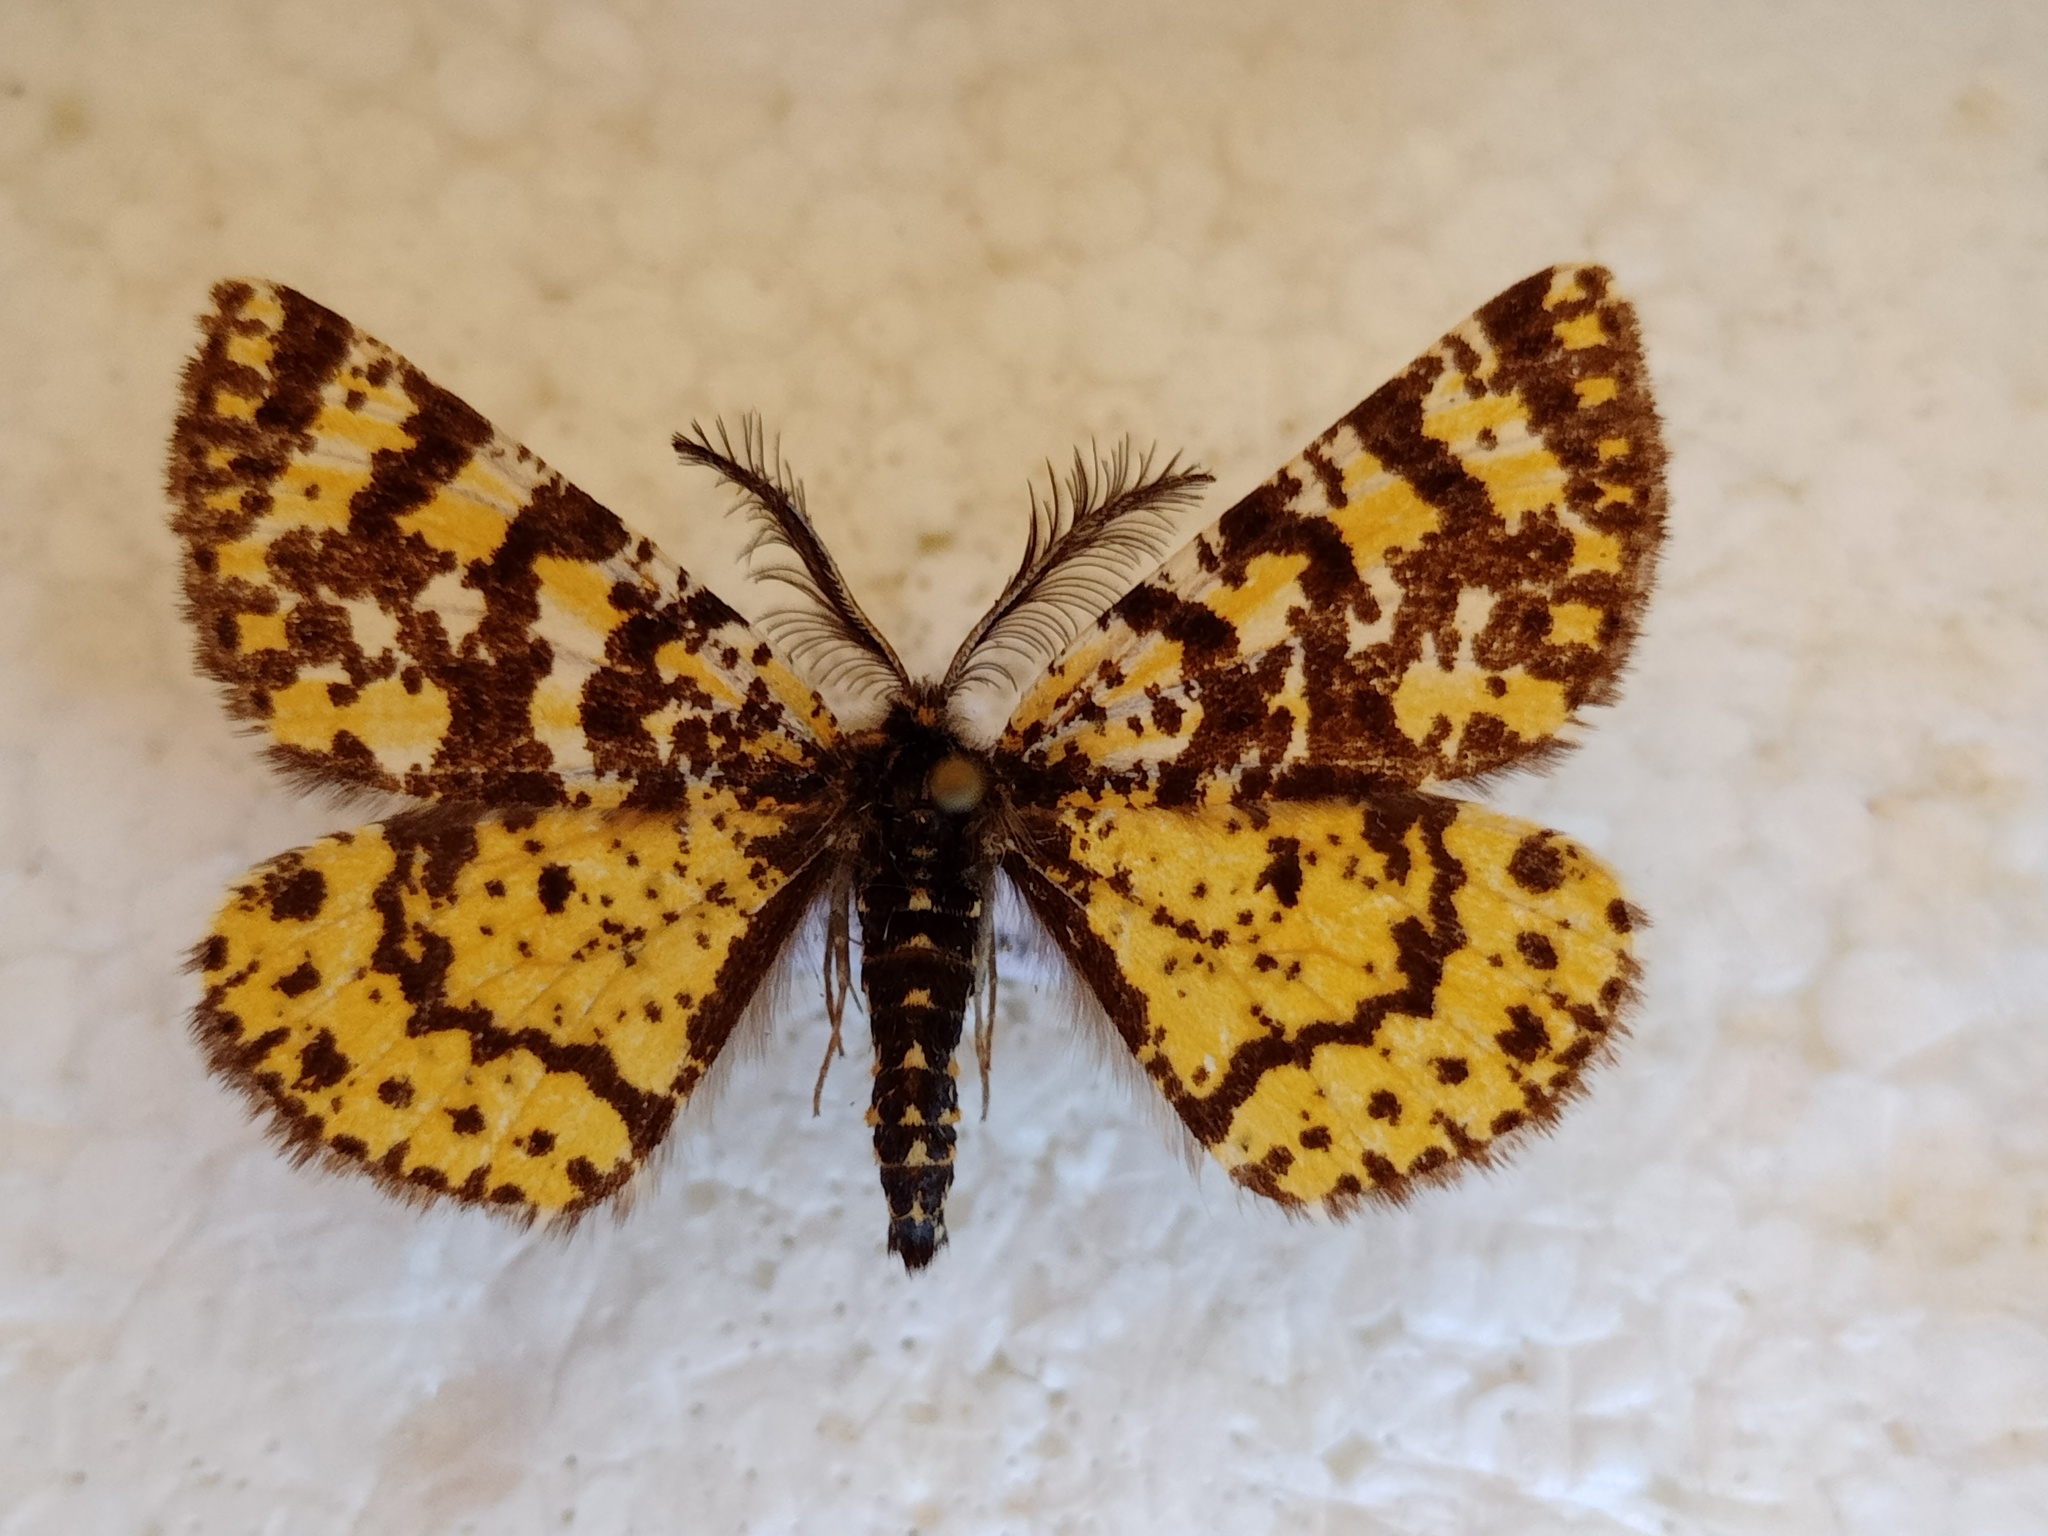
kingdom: Animalia
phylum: Arthropoda
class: Insecta
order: Lepidoptera
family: Geometridae
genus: Eurranthis
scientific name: Eurranthis plummistaria
